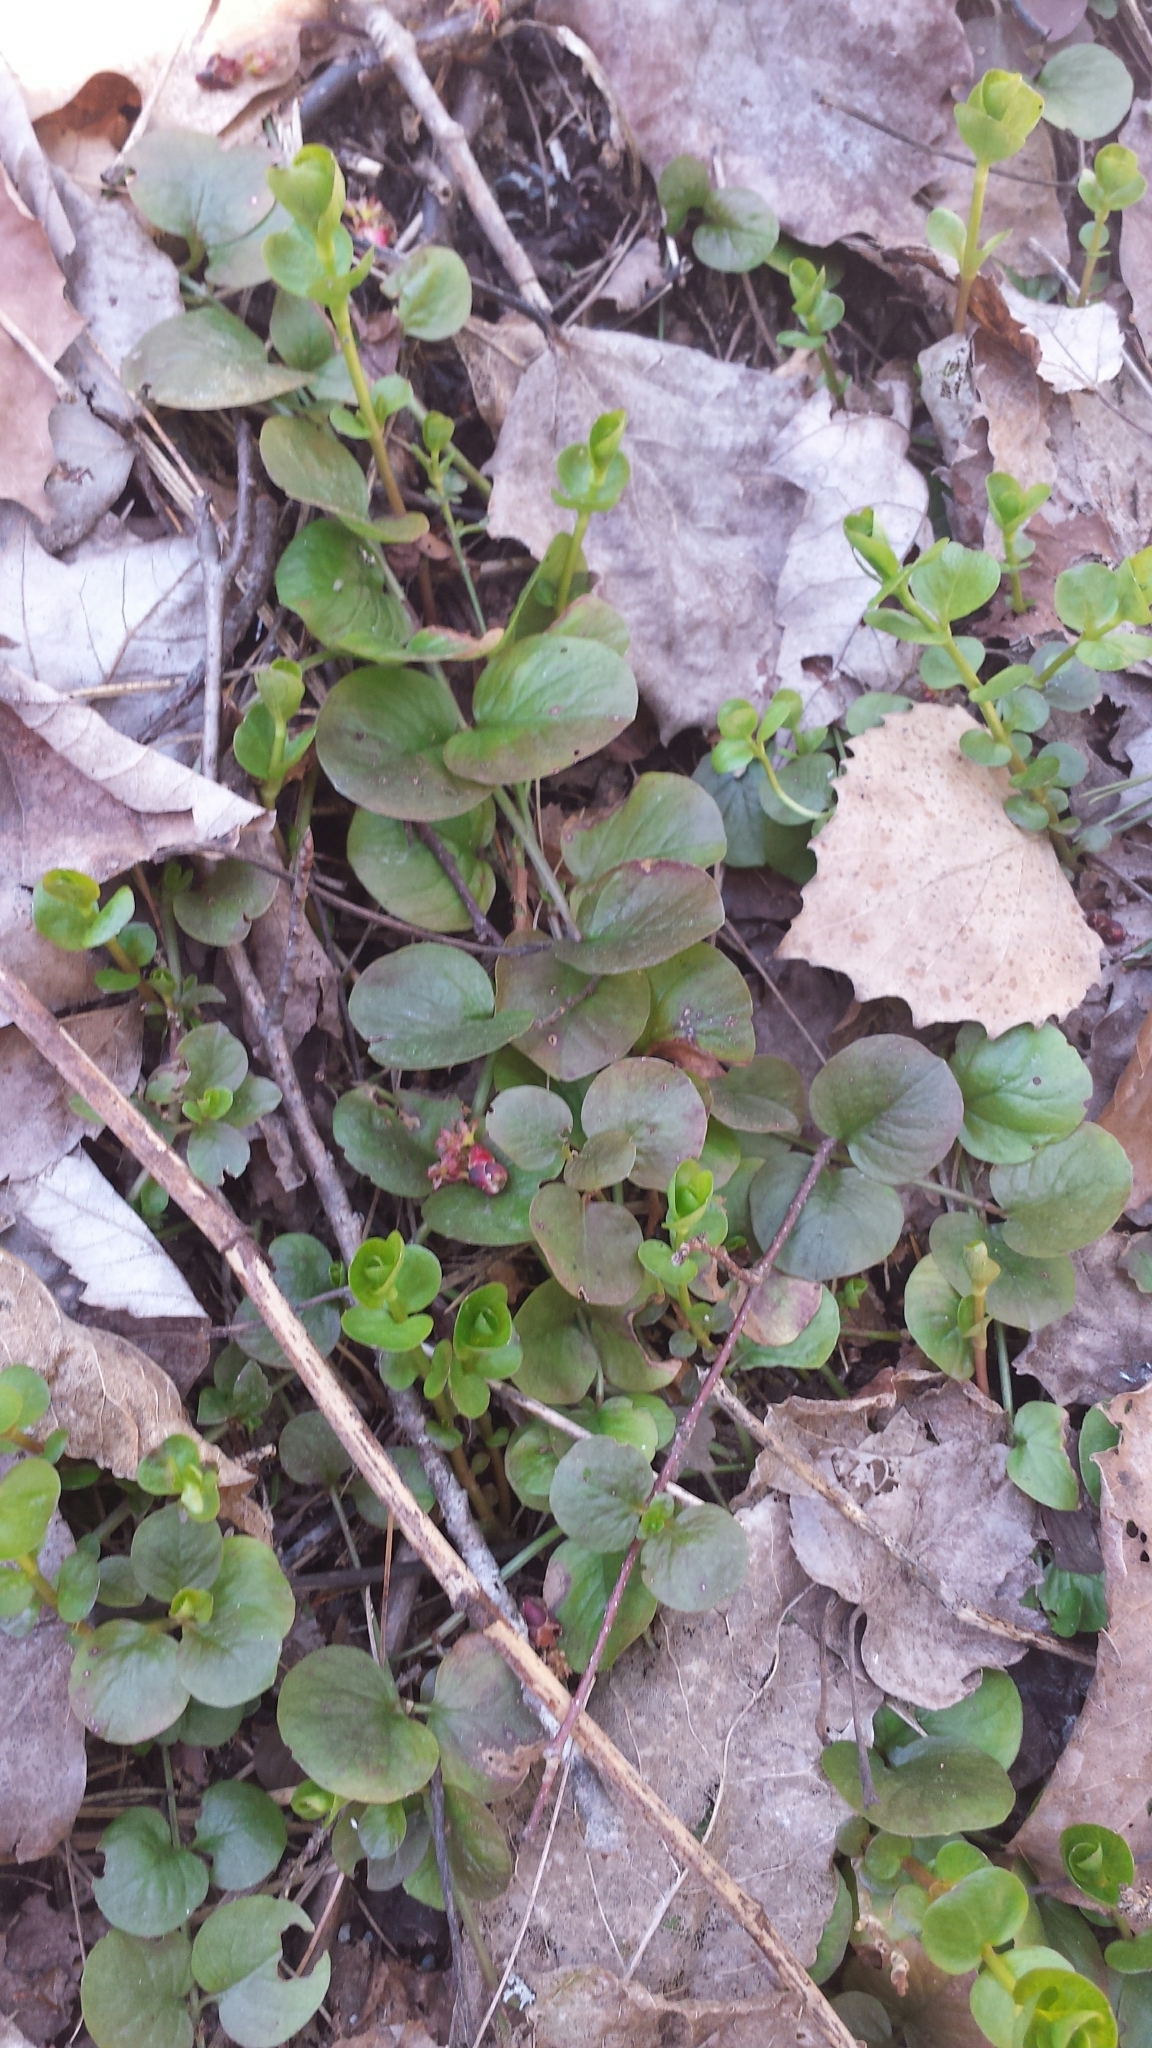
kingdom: Plantae
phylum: Tracheophyta
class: Magnoliopsida
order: Ericales
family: Primulaceae
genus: Lysimachia
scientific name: Lysimachia nummularia
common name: Moneywort
